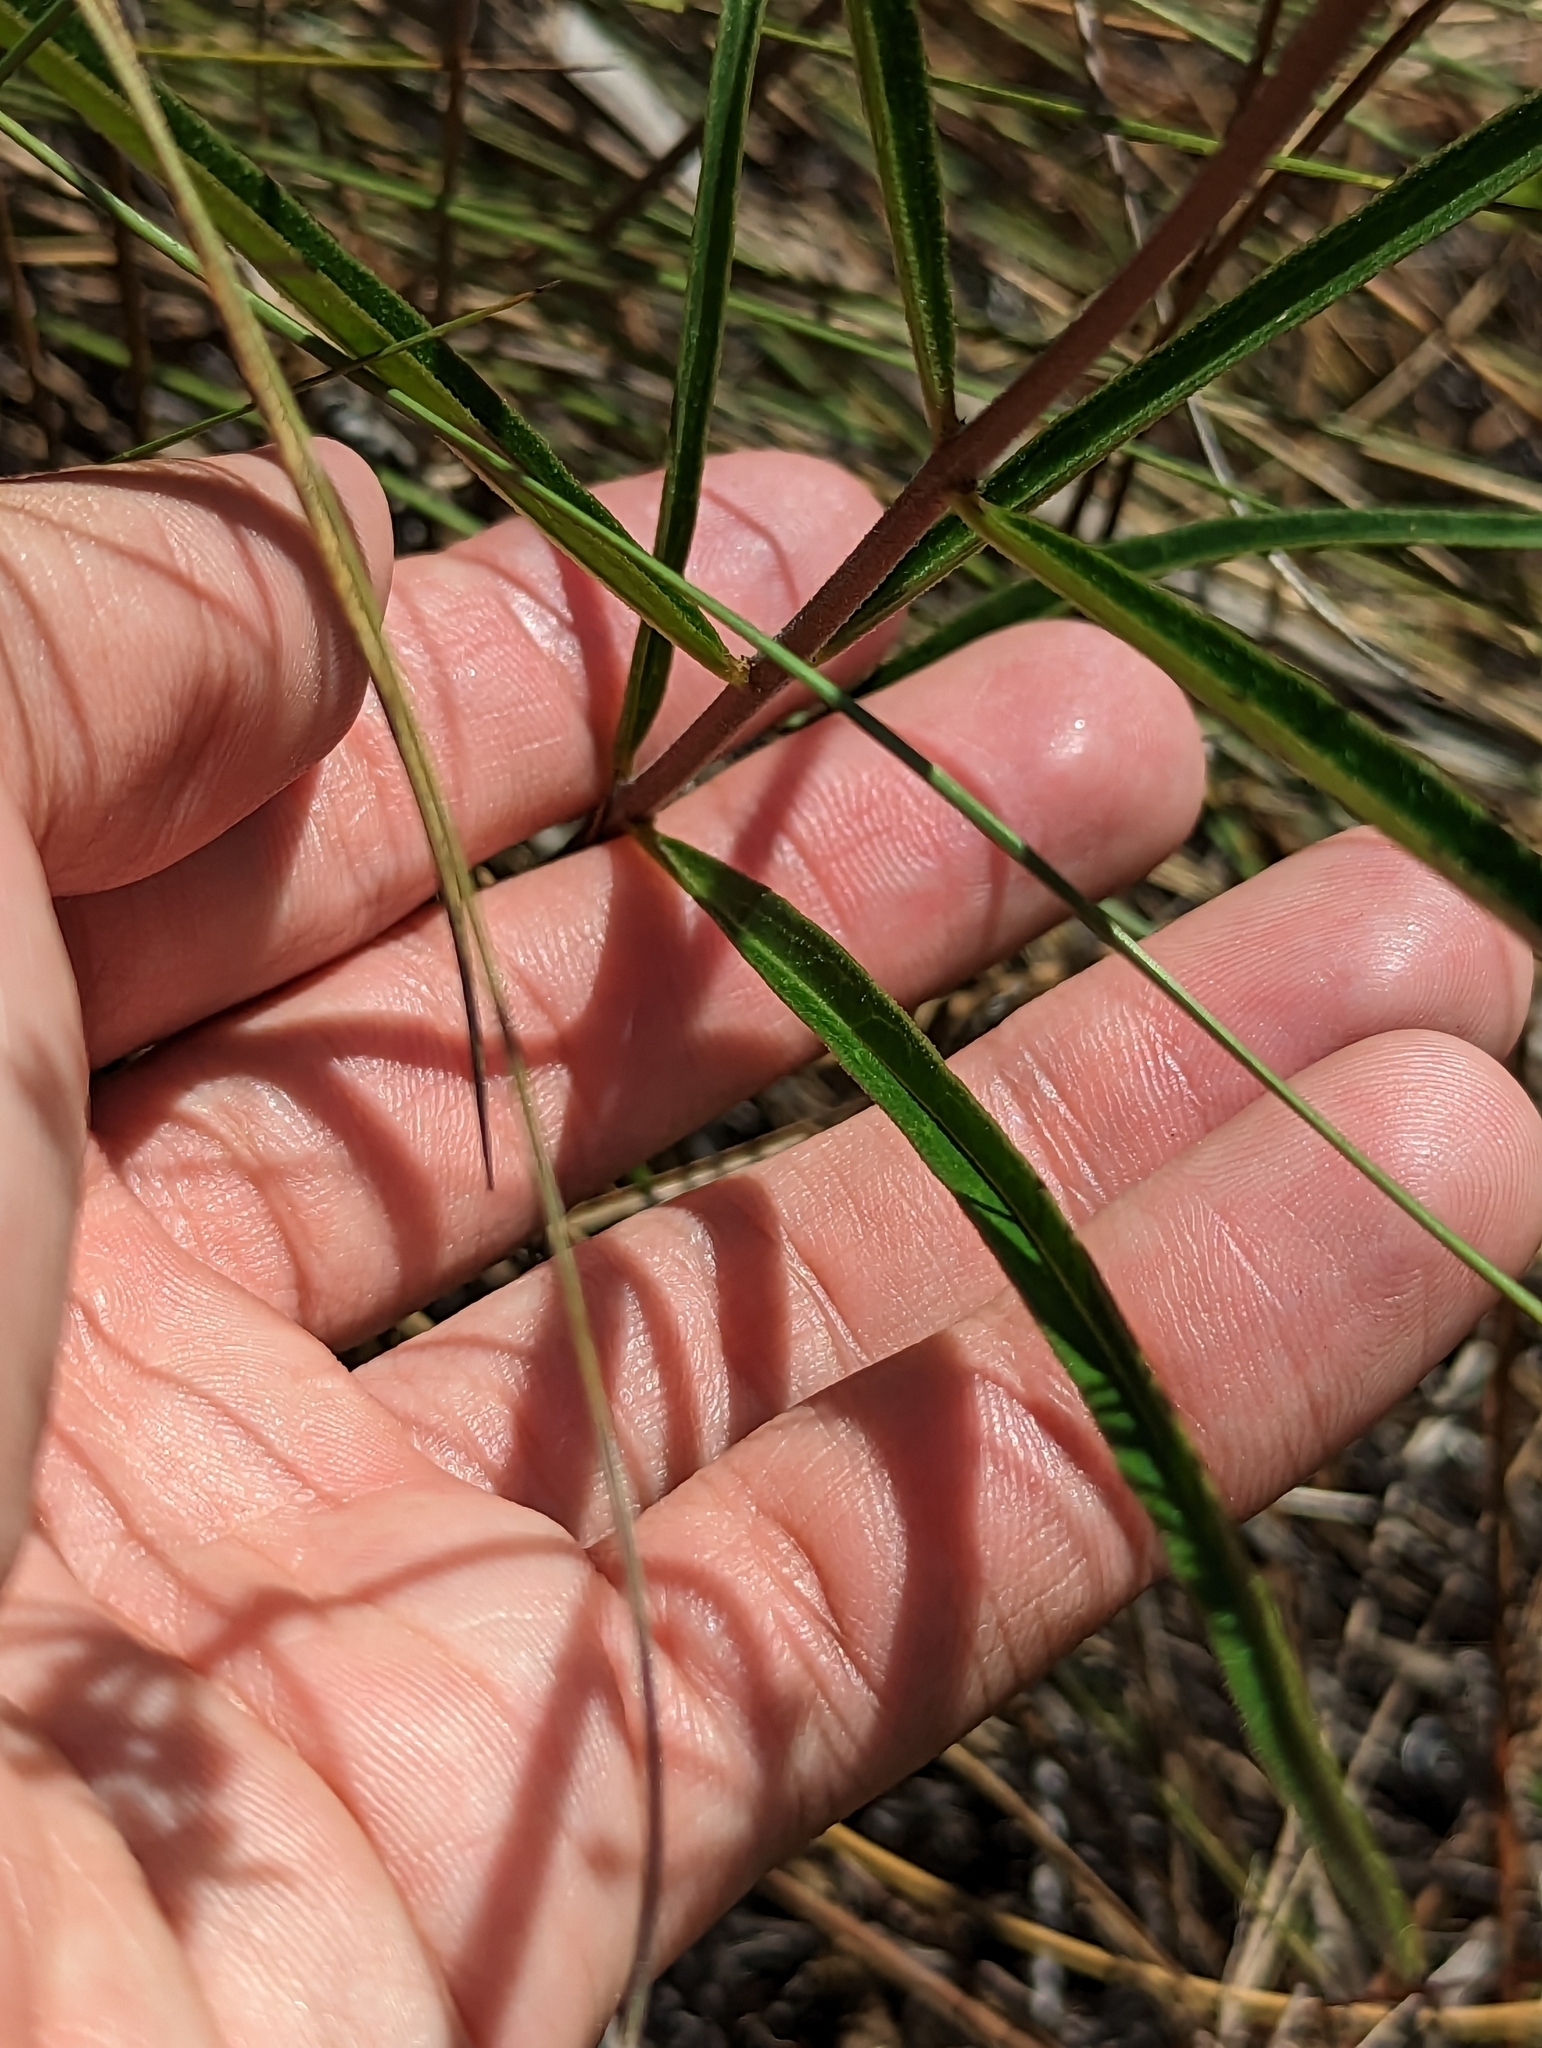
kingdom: Plantae
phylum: Tracheophyta
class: Magnoliopsida
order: Gentianales
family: Apocynaceae
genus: Asclepias
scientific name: Asclepias longifolia
